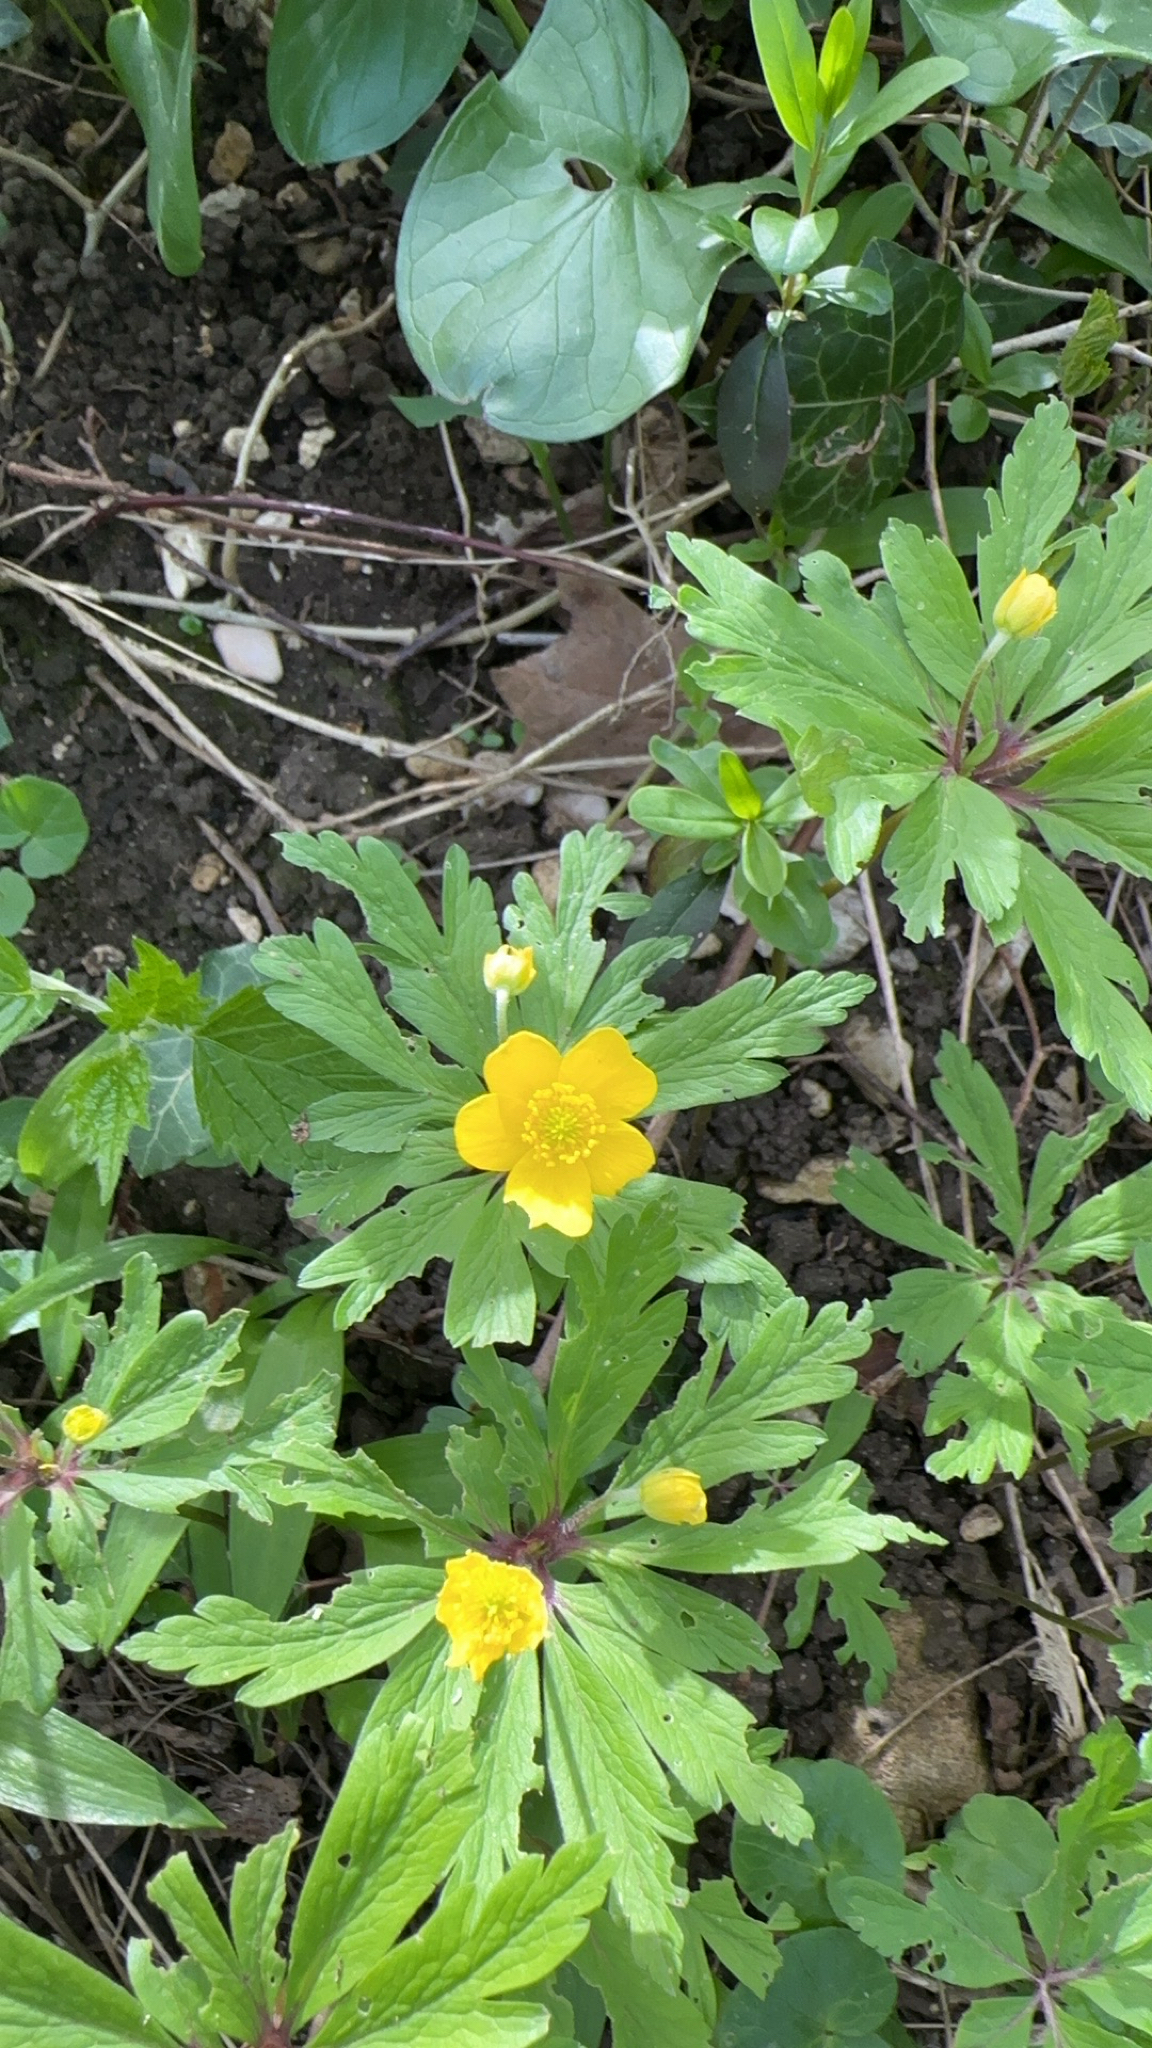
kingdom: Plantae
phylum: Tracheophyta
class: Magnoliopsida
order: Ranunculales
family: Ranunculaceae
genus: Anemone
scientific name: Anemone ranunculoides
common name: Yellow anemone
